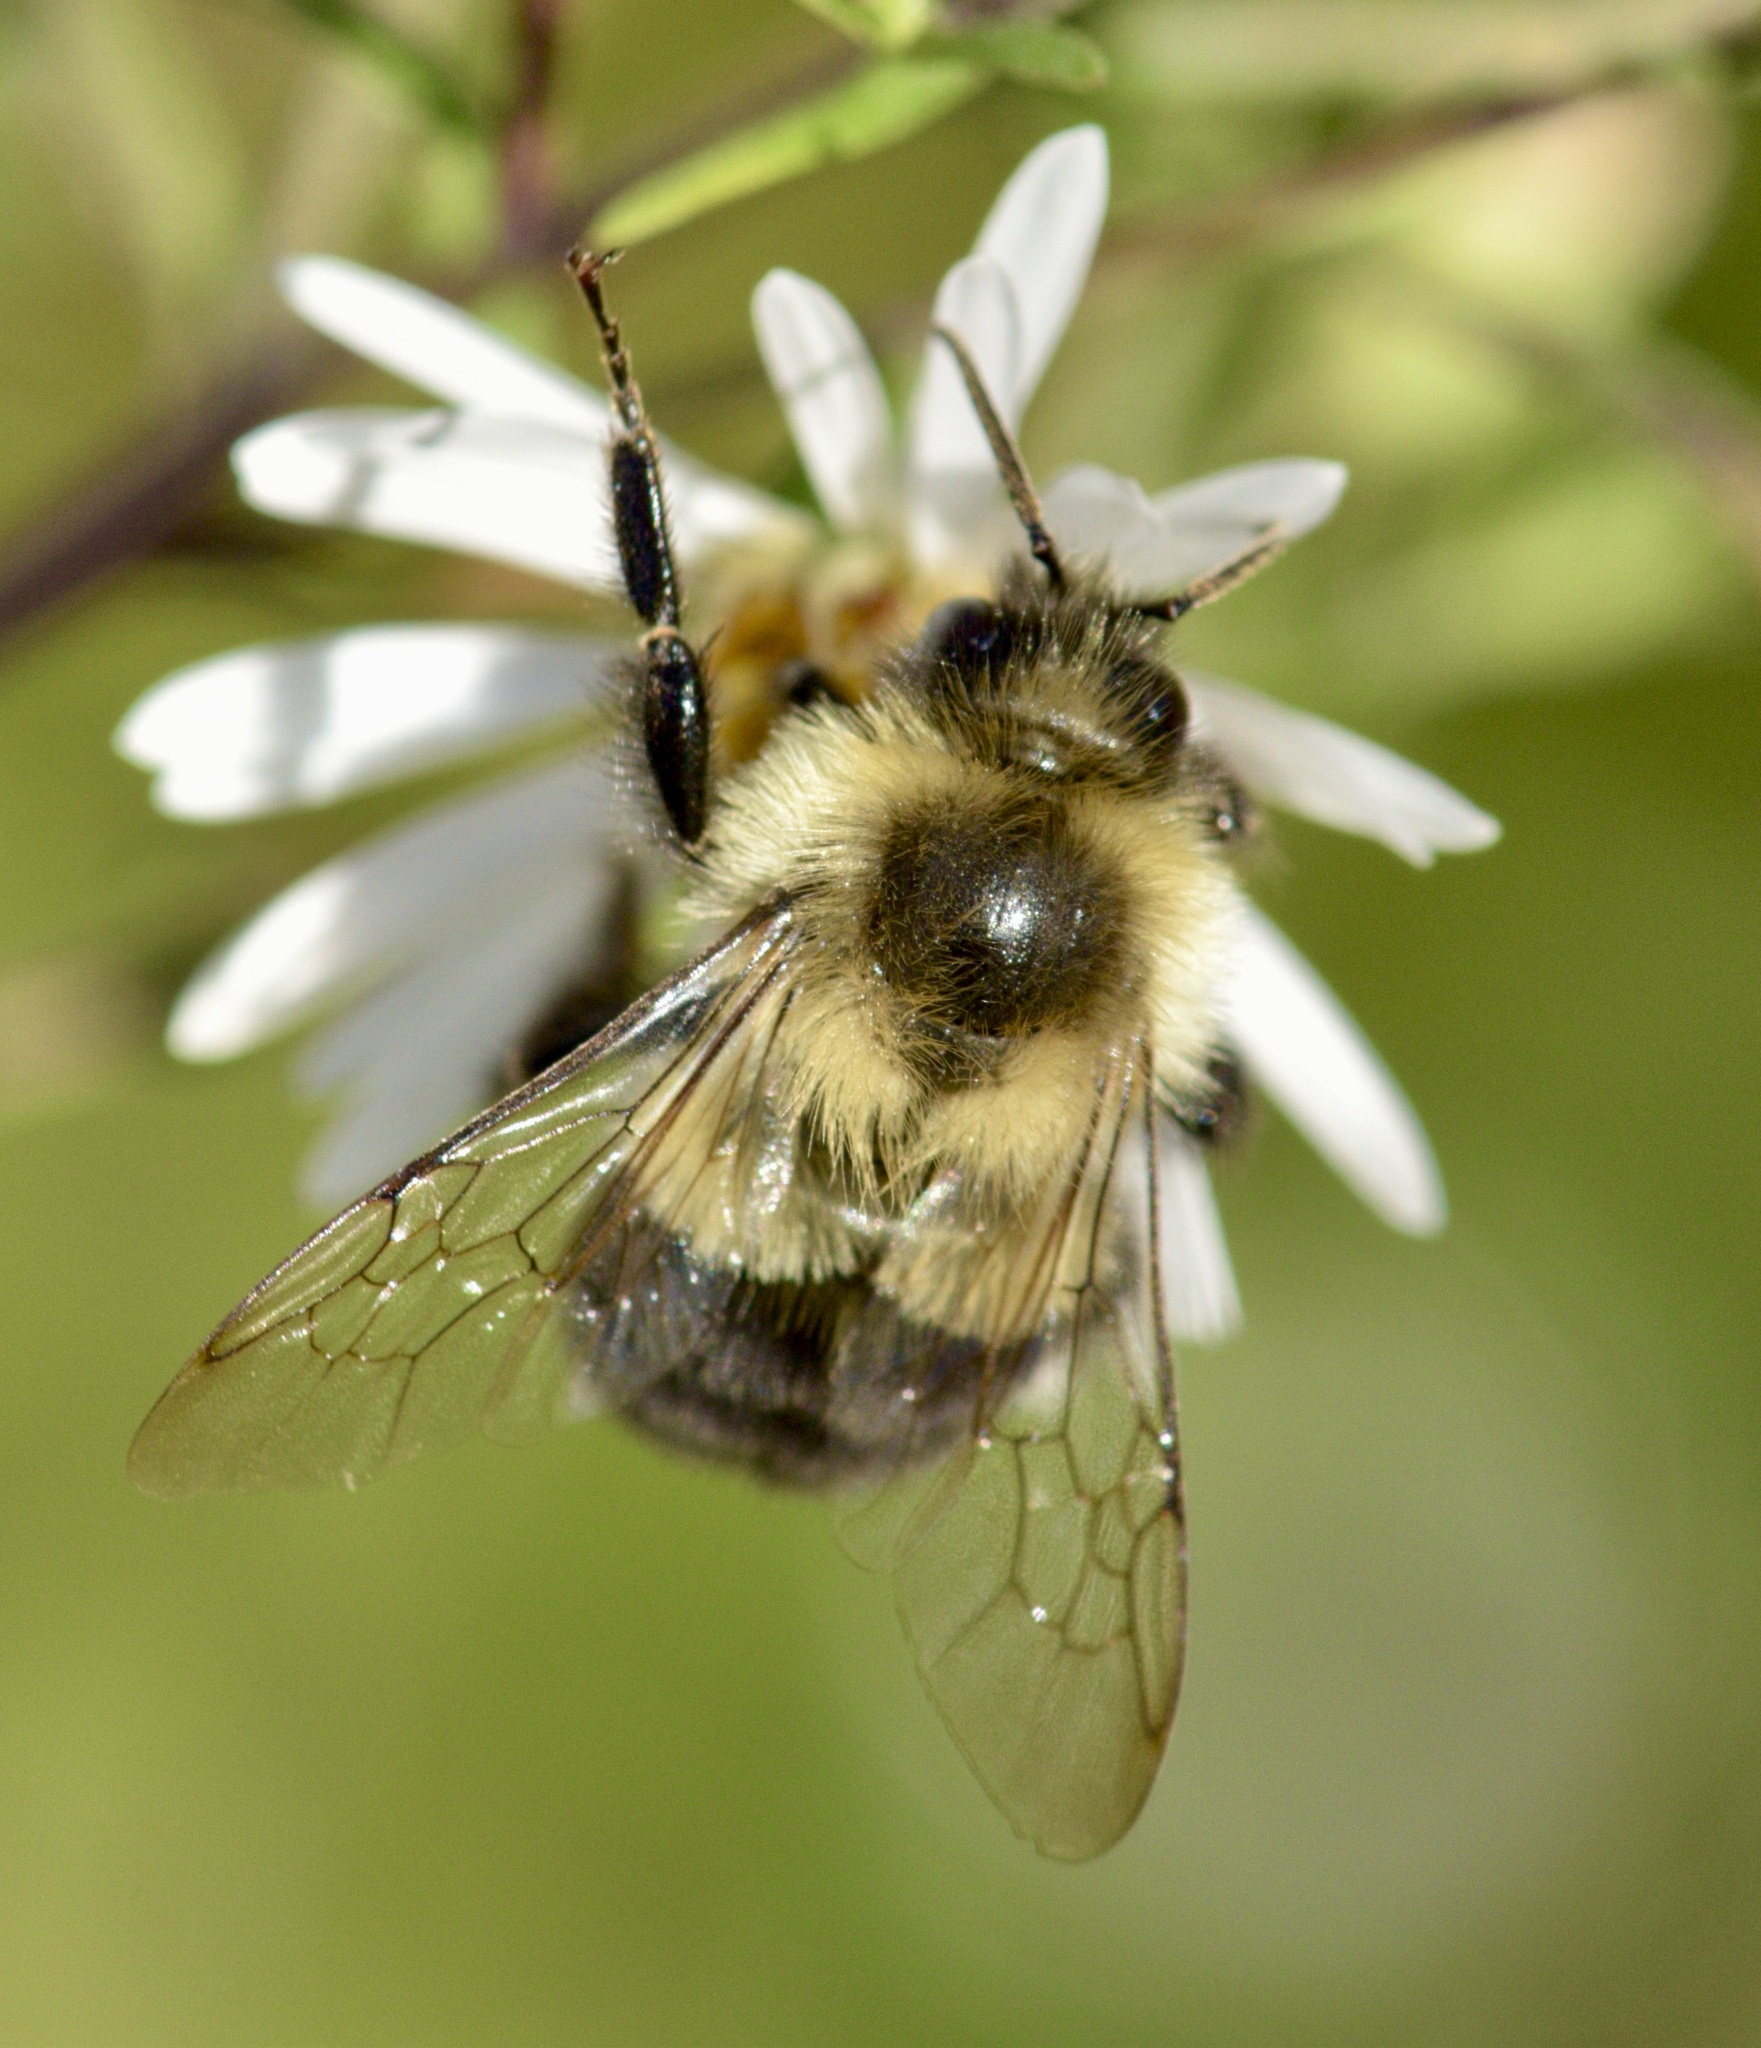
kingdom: Animalia
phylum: Arthropoda
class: Insecta
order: Hymenoptera
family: Apidae
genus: Bombus
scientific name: Bombus impatiens
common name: Common eastern bumble bee
